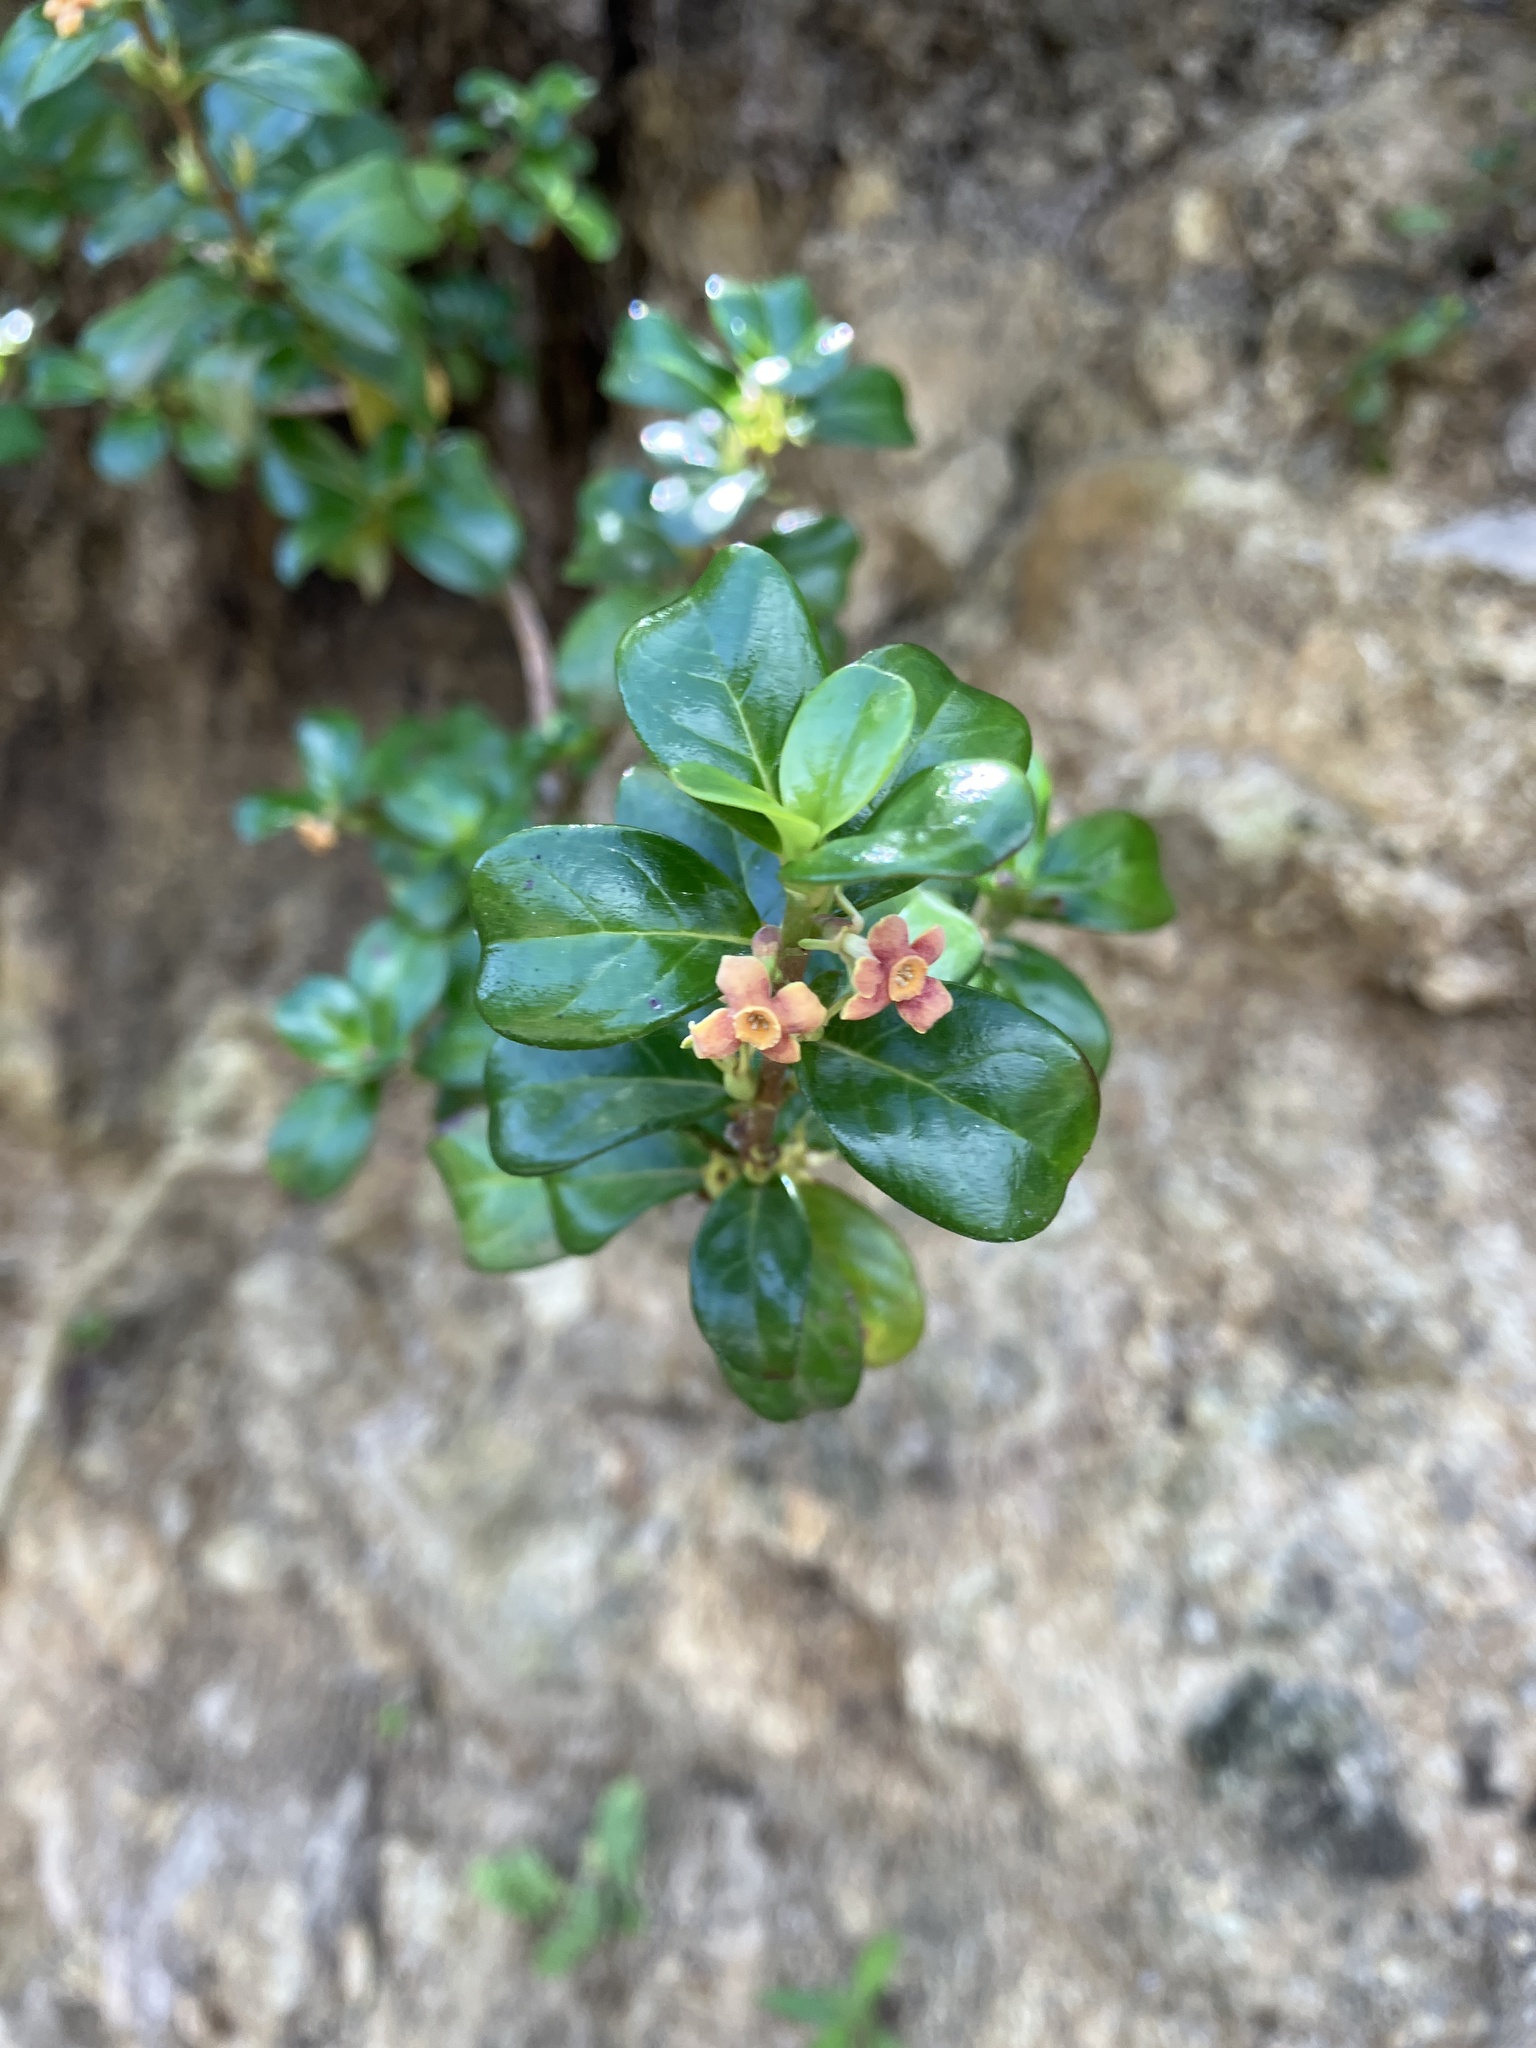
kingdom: Plantae
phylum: Tracheophyta
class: Magnoliopsida
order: Gentianales
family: Rubiaceae
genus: Rondeletia
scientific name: Rondeletia buxifolia
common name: Pribby
